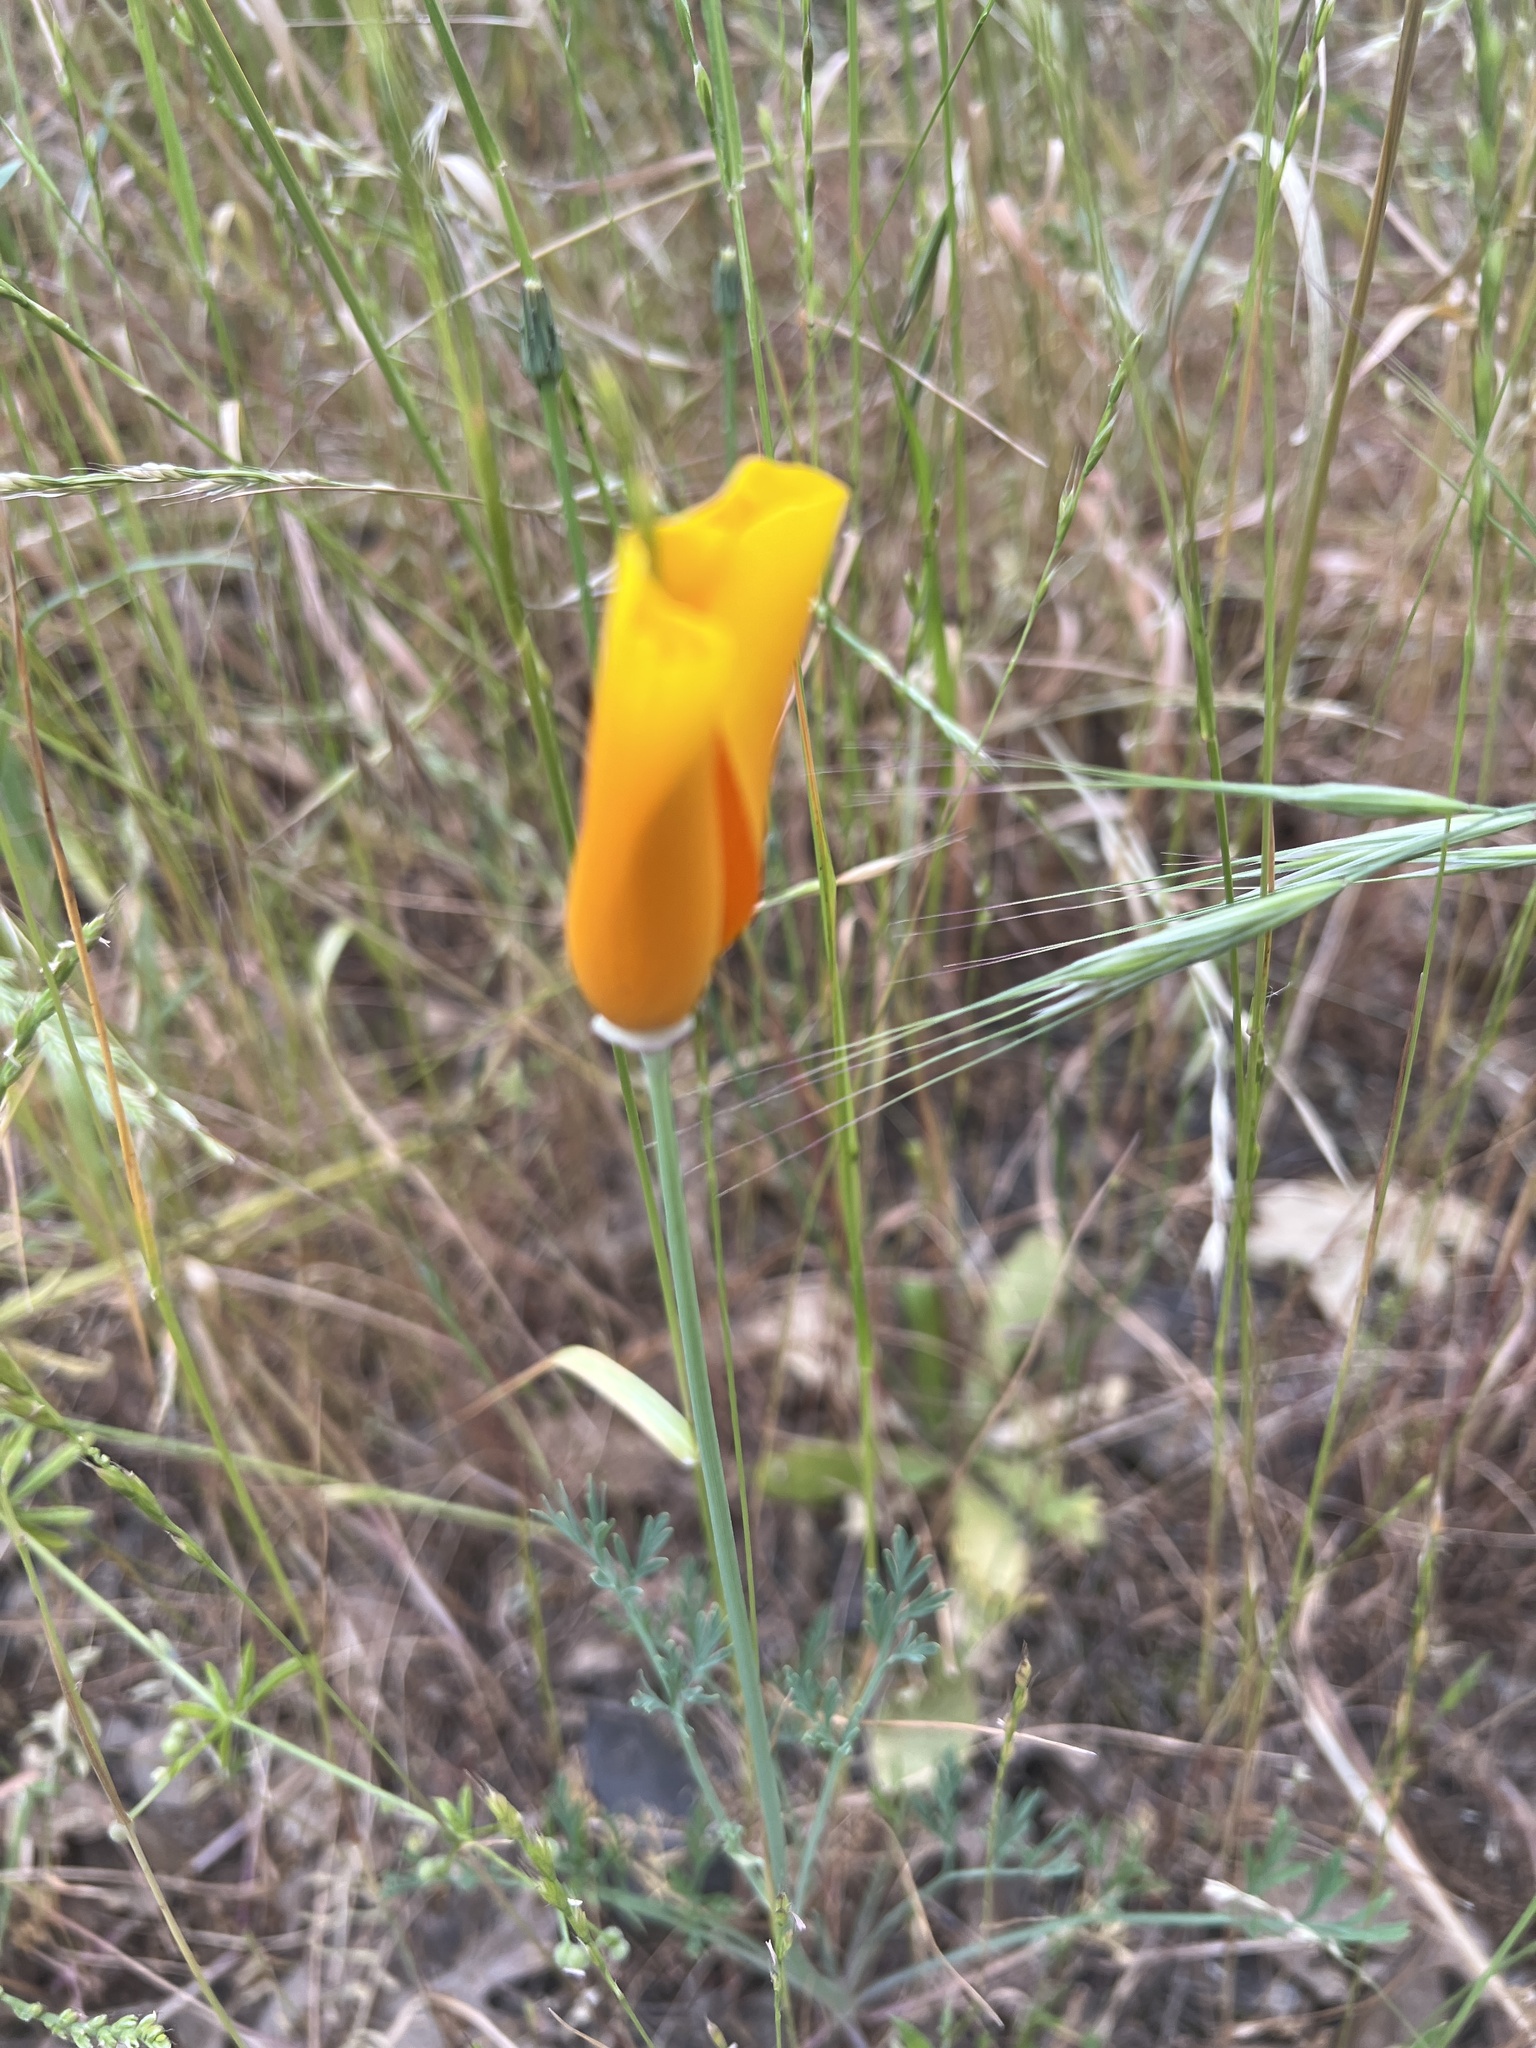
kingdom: Plantae
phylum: Tracheophyta
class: Magnoliopsida
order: Ranunculales
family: Papaveraceae
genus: Eschscholzia
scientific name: Eschscholzia californica
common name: California poppy
